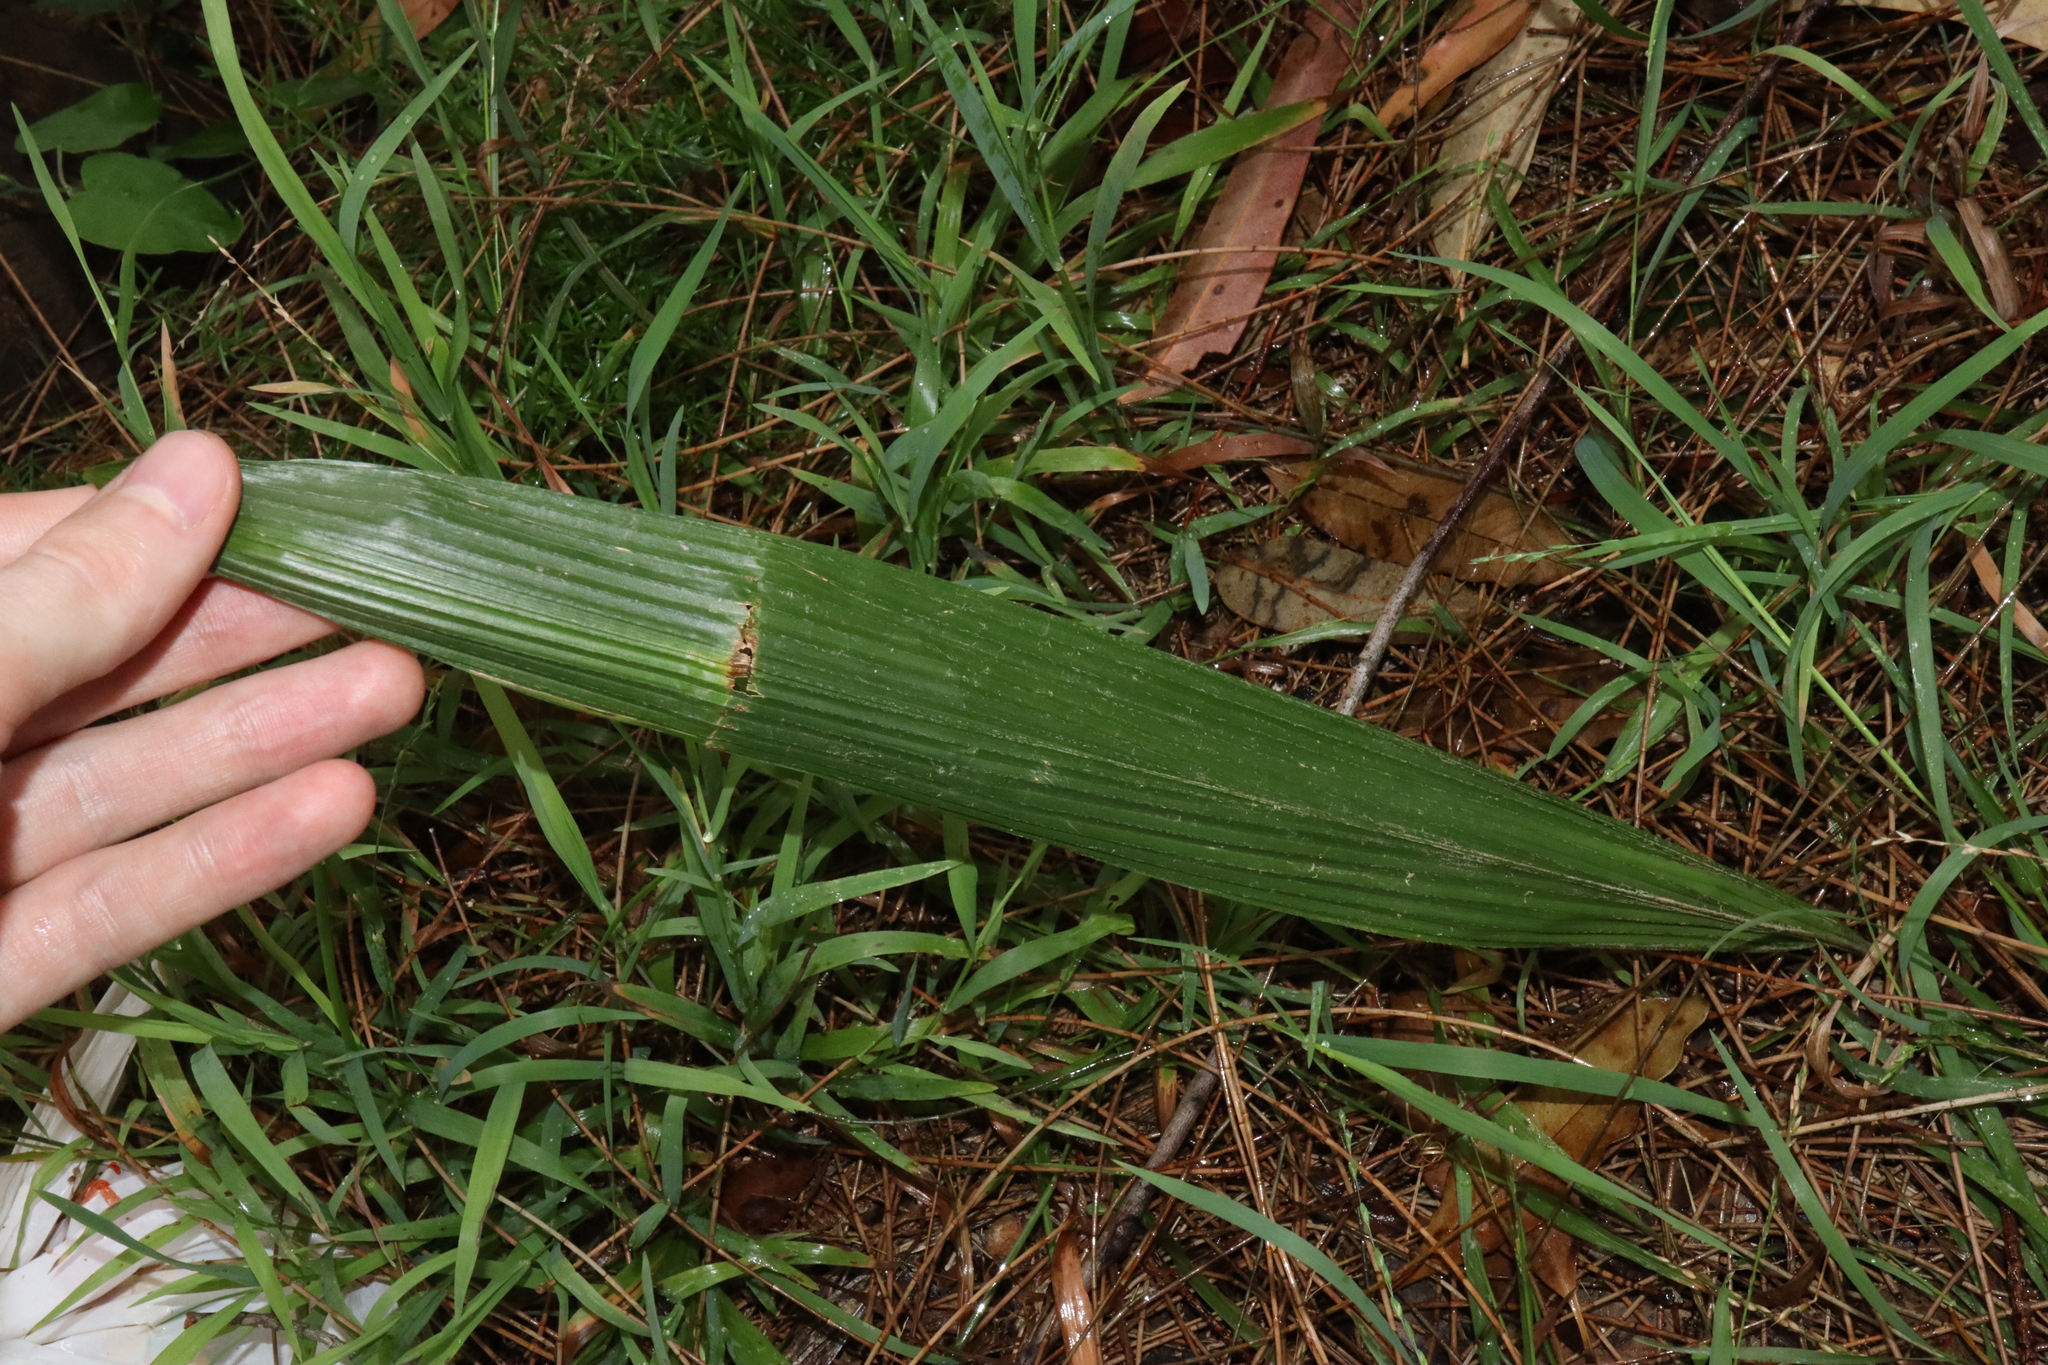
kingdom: Plantae
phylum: Tracheophyta
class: Liliopsida
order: Arecales
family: Arecaceae
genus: Syagrus
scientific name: Syagrus romanzoffiana
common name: Queen palm
